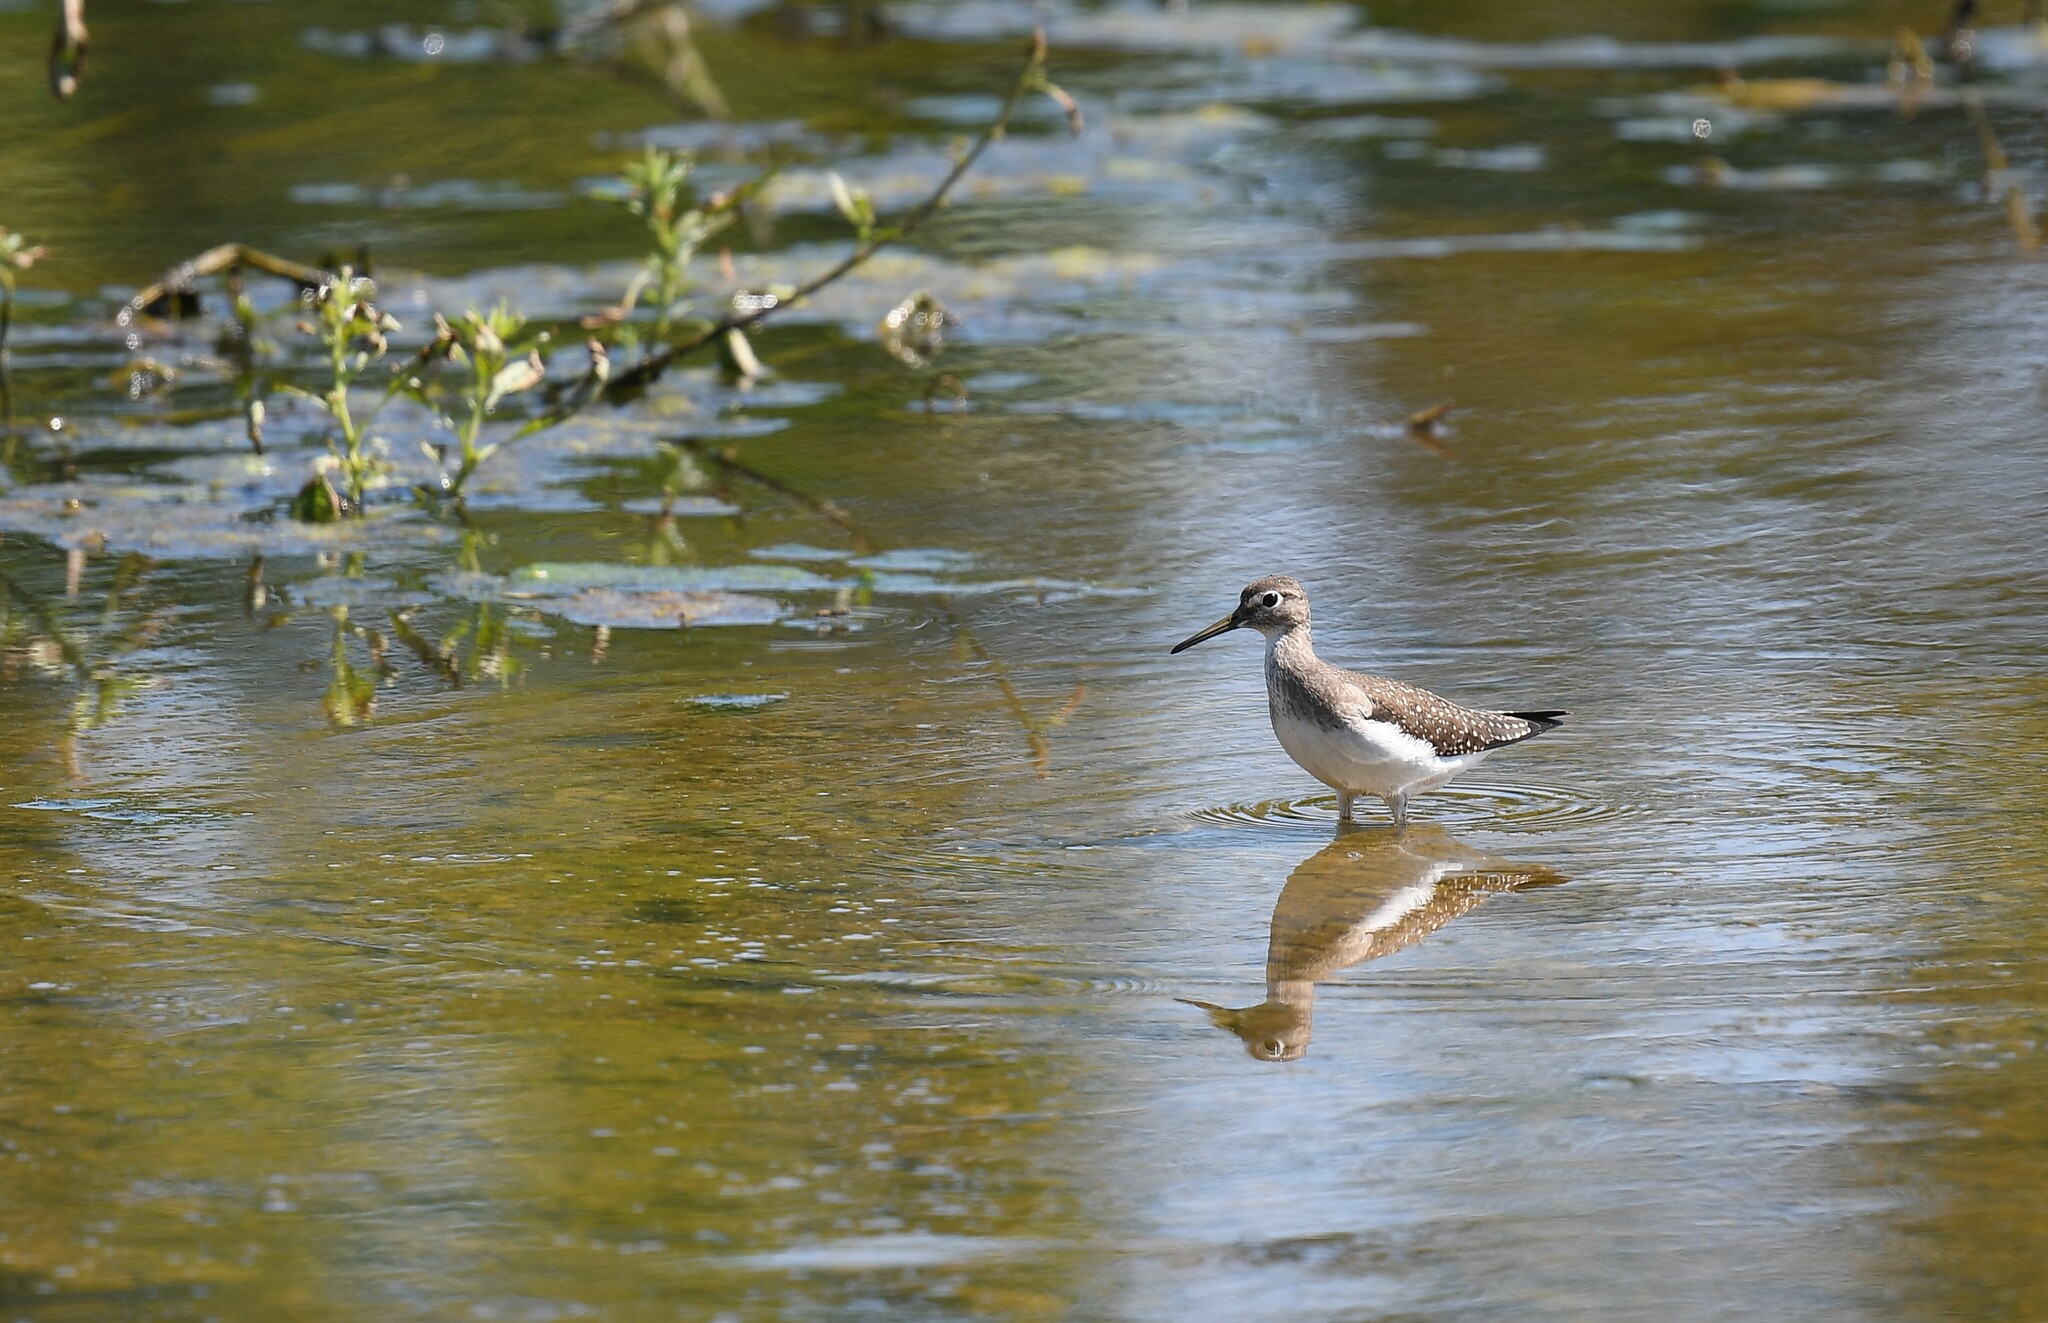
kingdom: Animalia
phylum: Chordata
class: Aves
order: Charadriiformes
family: Scolopacidae
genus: Tringa
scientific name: Tringa solitaria
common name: Solitary sandpiper
